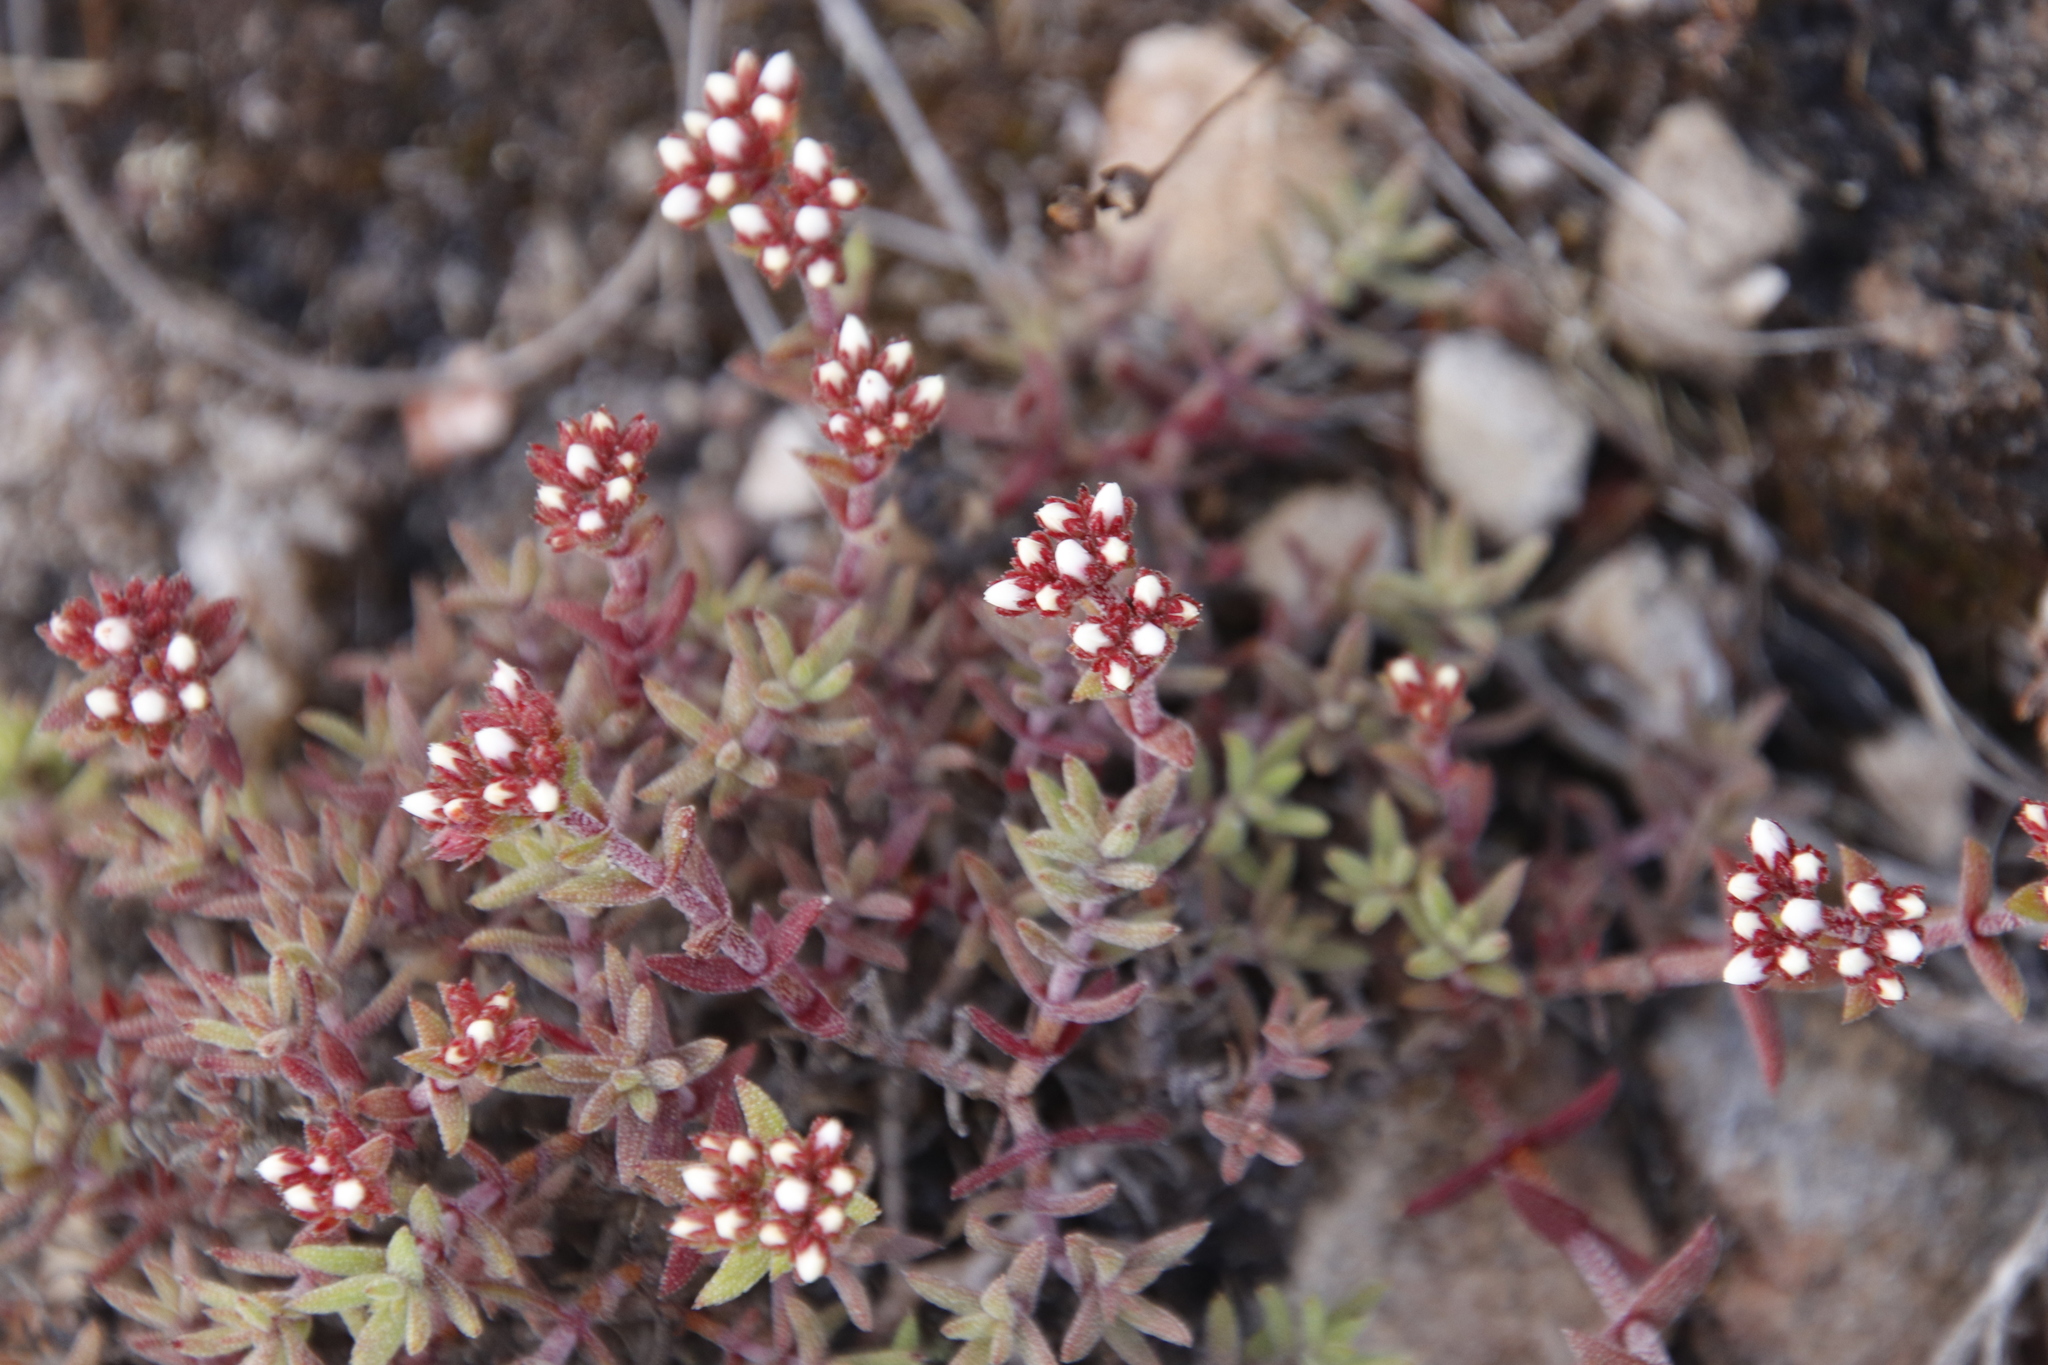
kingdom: Plantae
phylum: Tracheophyta
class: Magnoliopsida
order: Saxifragales
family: Crassulaceae
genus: Crassula
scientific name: Crassula pruinosa
